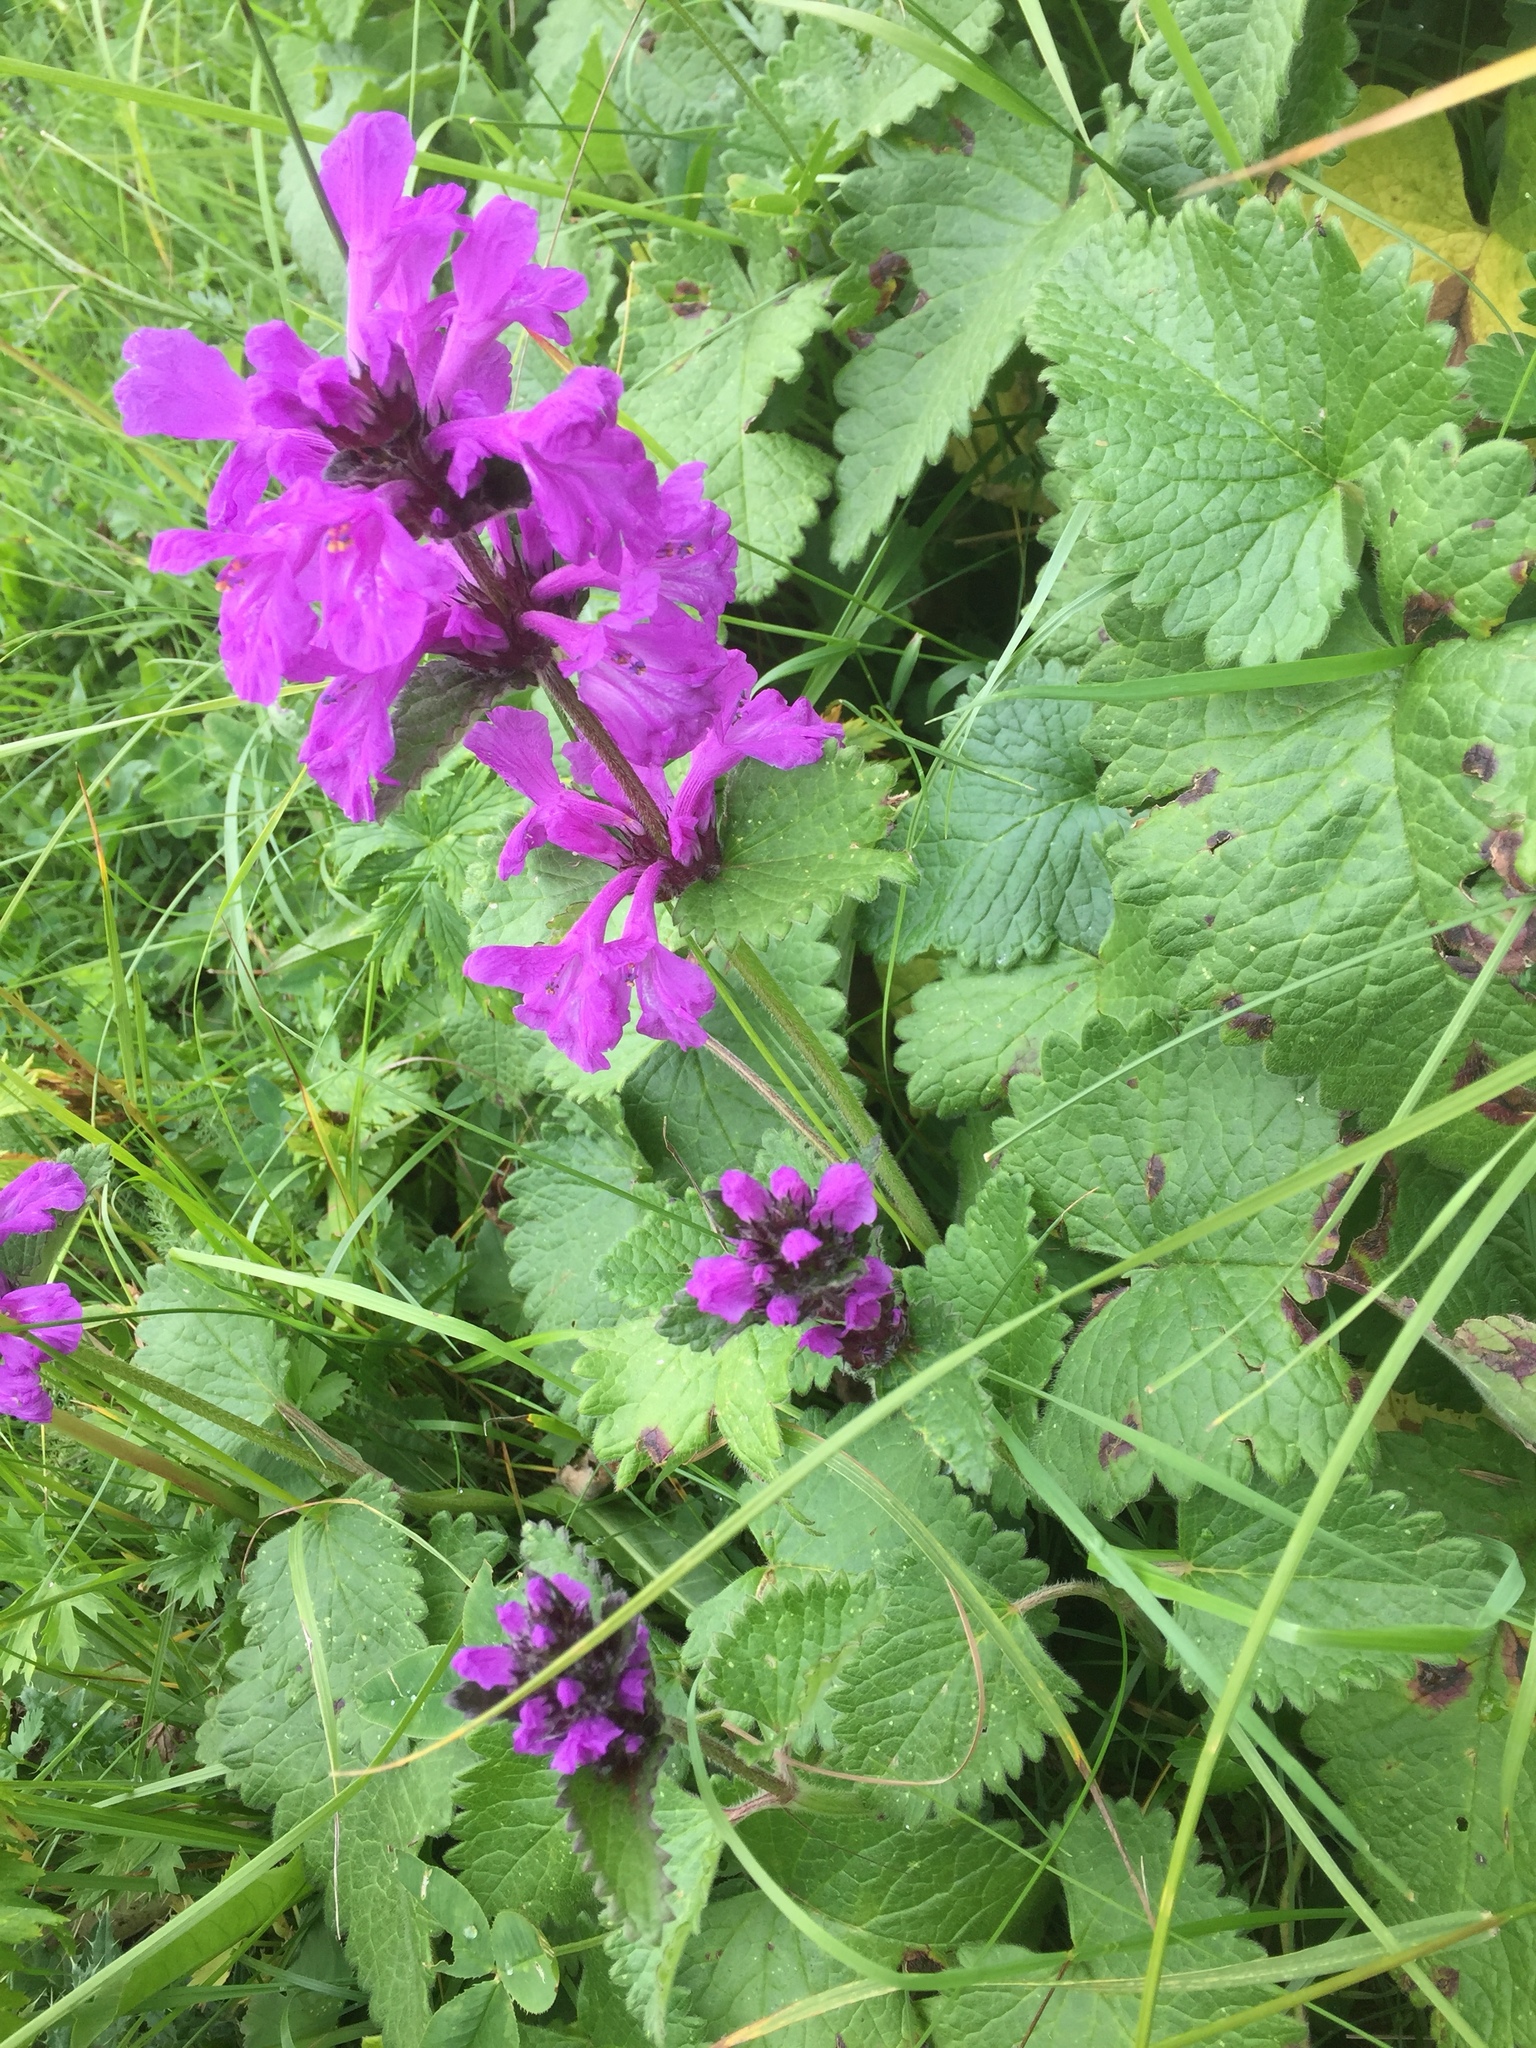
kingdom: Plantae
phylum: Tracheophyta
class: Magnoliopsida
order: Lamiales
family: Lamiaceae
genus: Betonica
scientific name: Betonica macrantha
